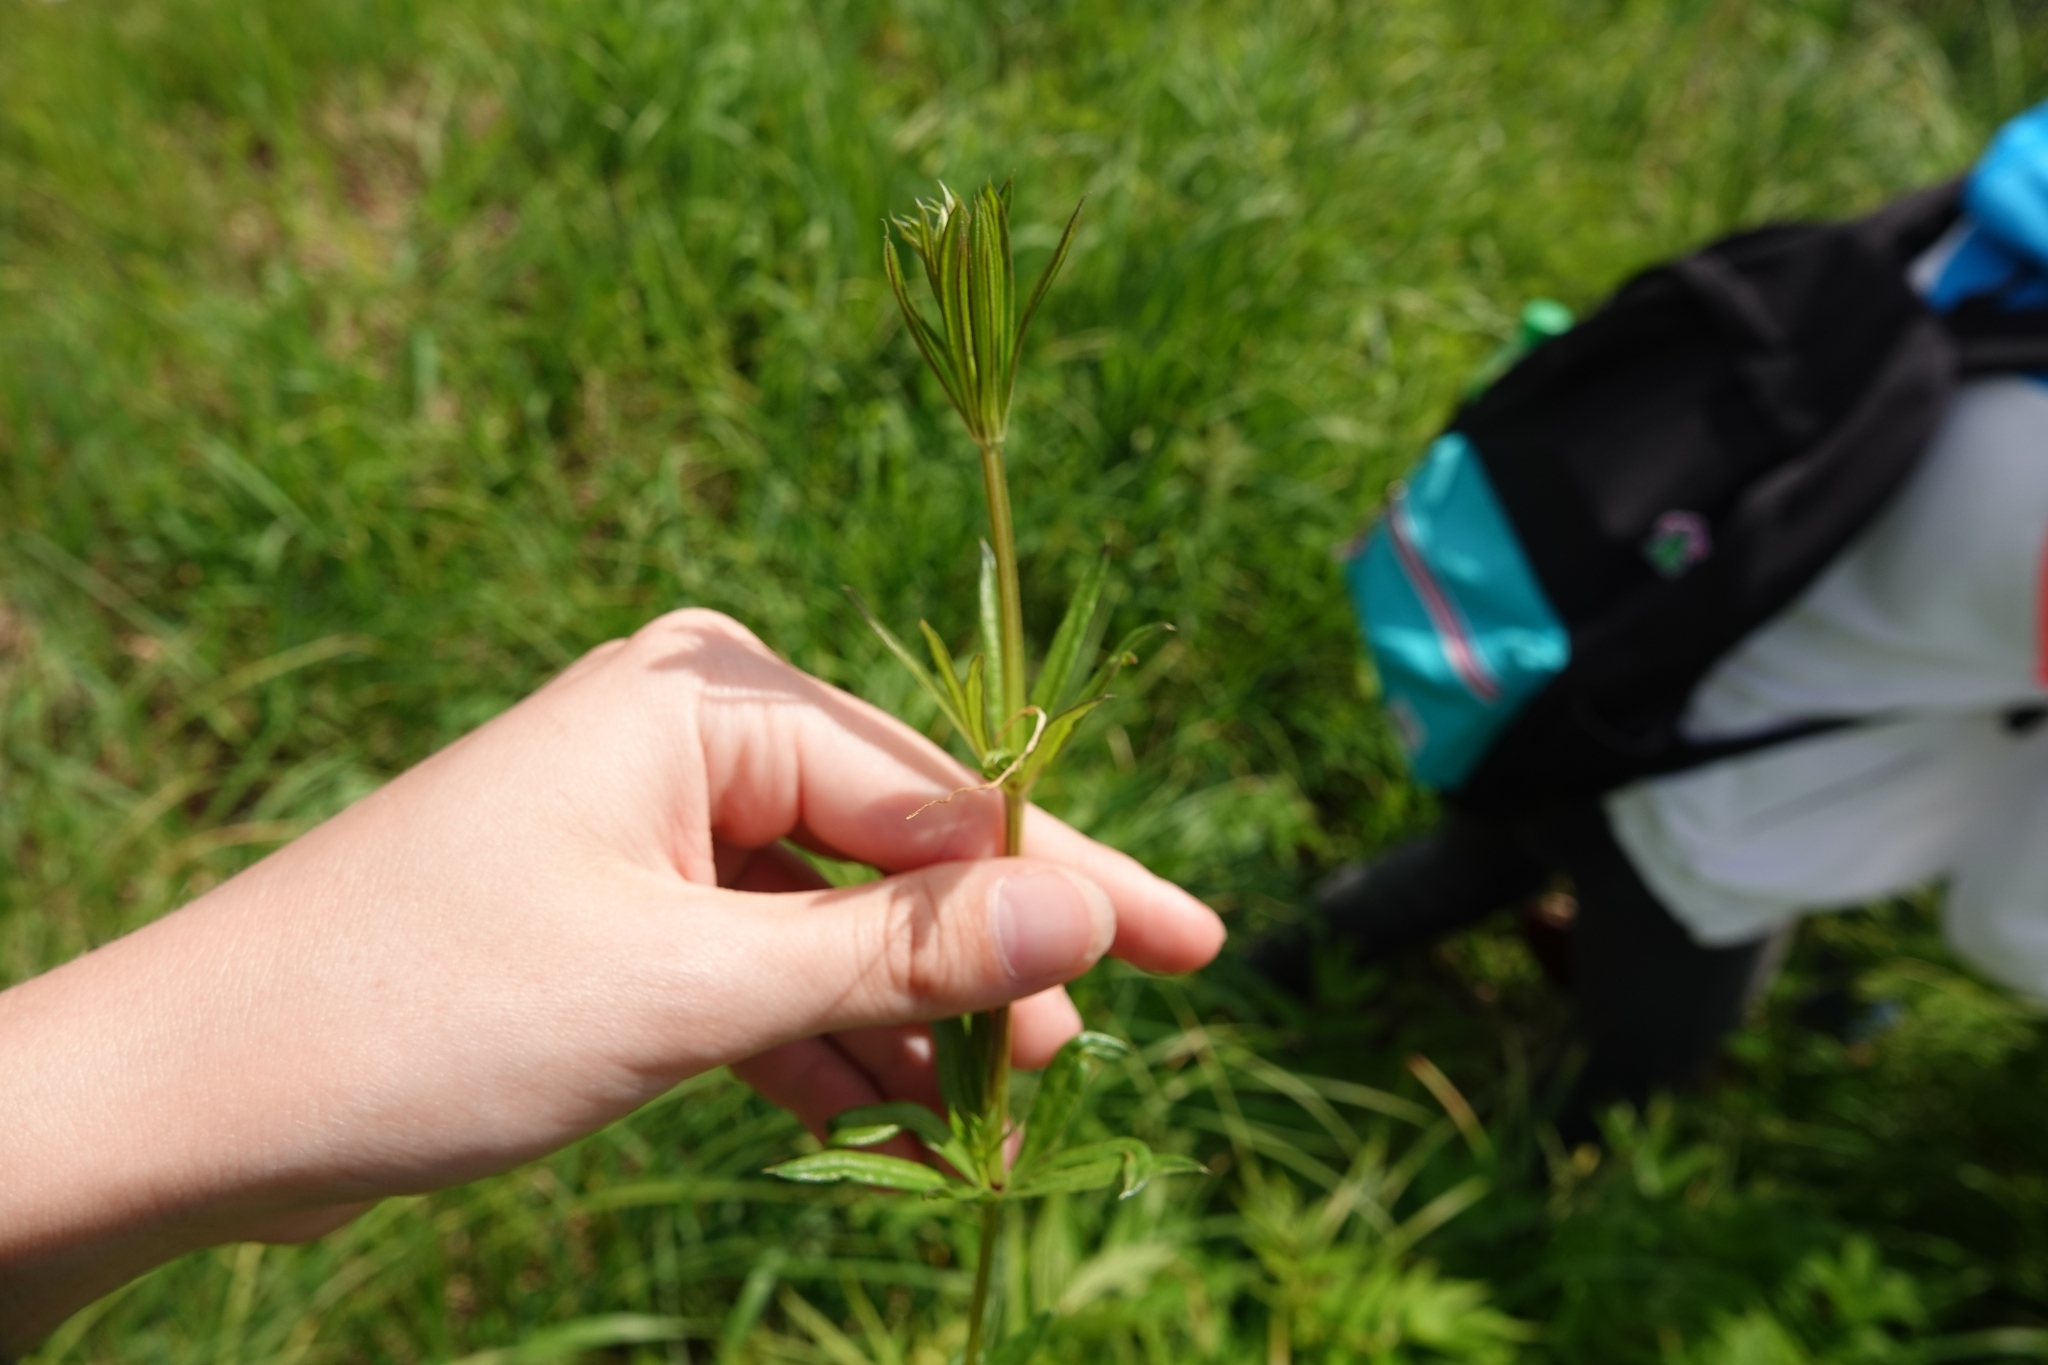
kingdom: Plantae
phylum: Tracheophyta
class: Magnoliopsida
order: Gentianales
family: Rubiaceae
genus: Galium
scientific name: Galium rivale
